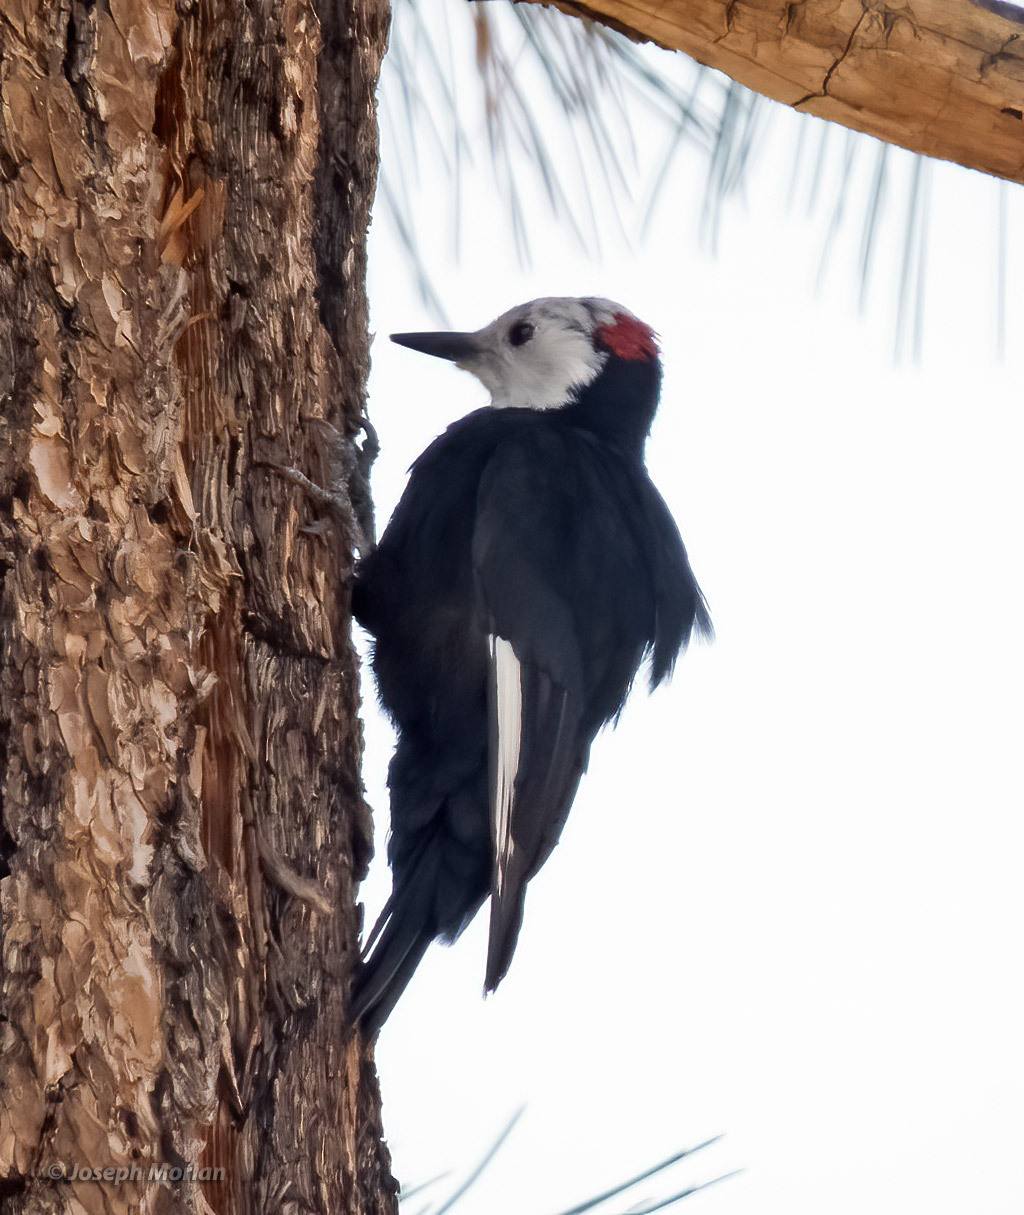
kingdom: Animalia
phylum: Chordata
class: Aves
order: Piciformes
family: Picidae
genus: Leuconotopicus
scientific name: Leuconotopicus albolarvatus
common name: White-headed woodpecker
